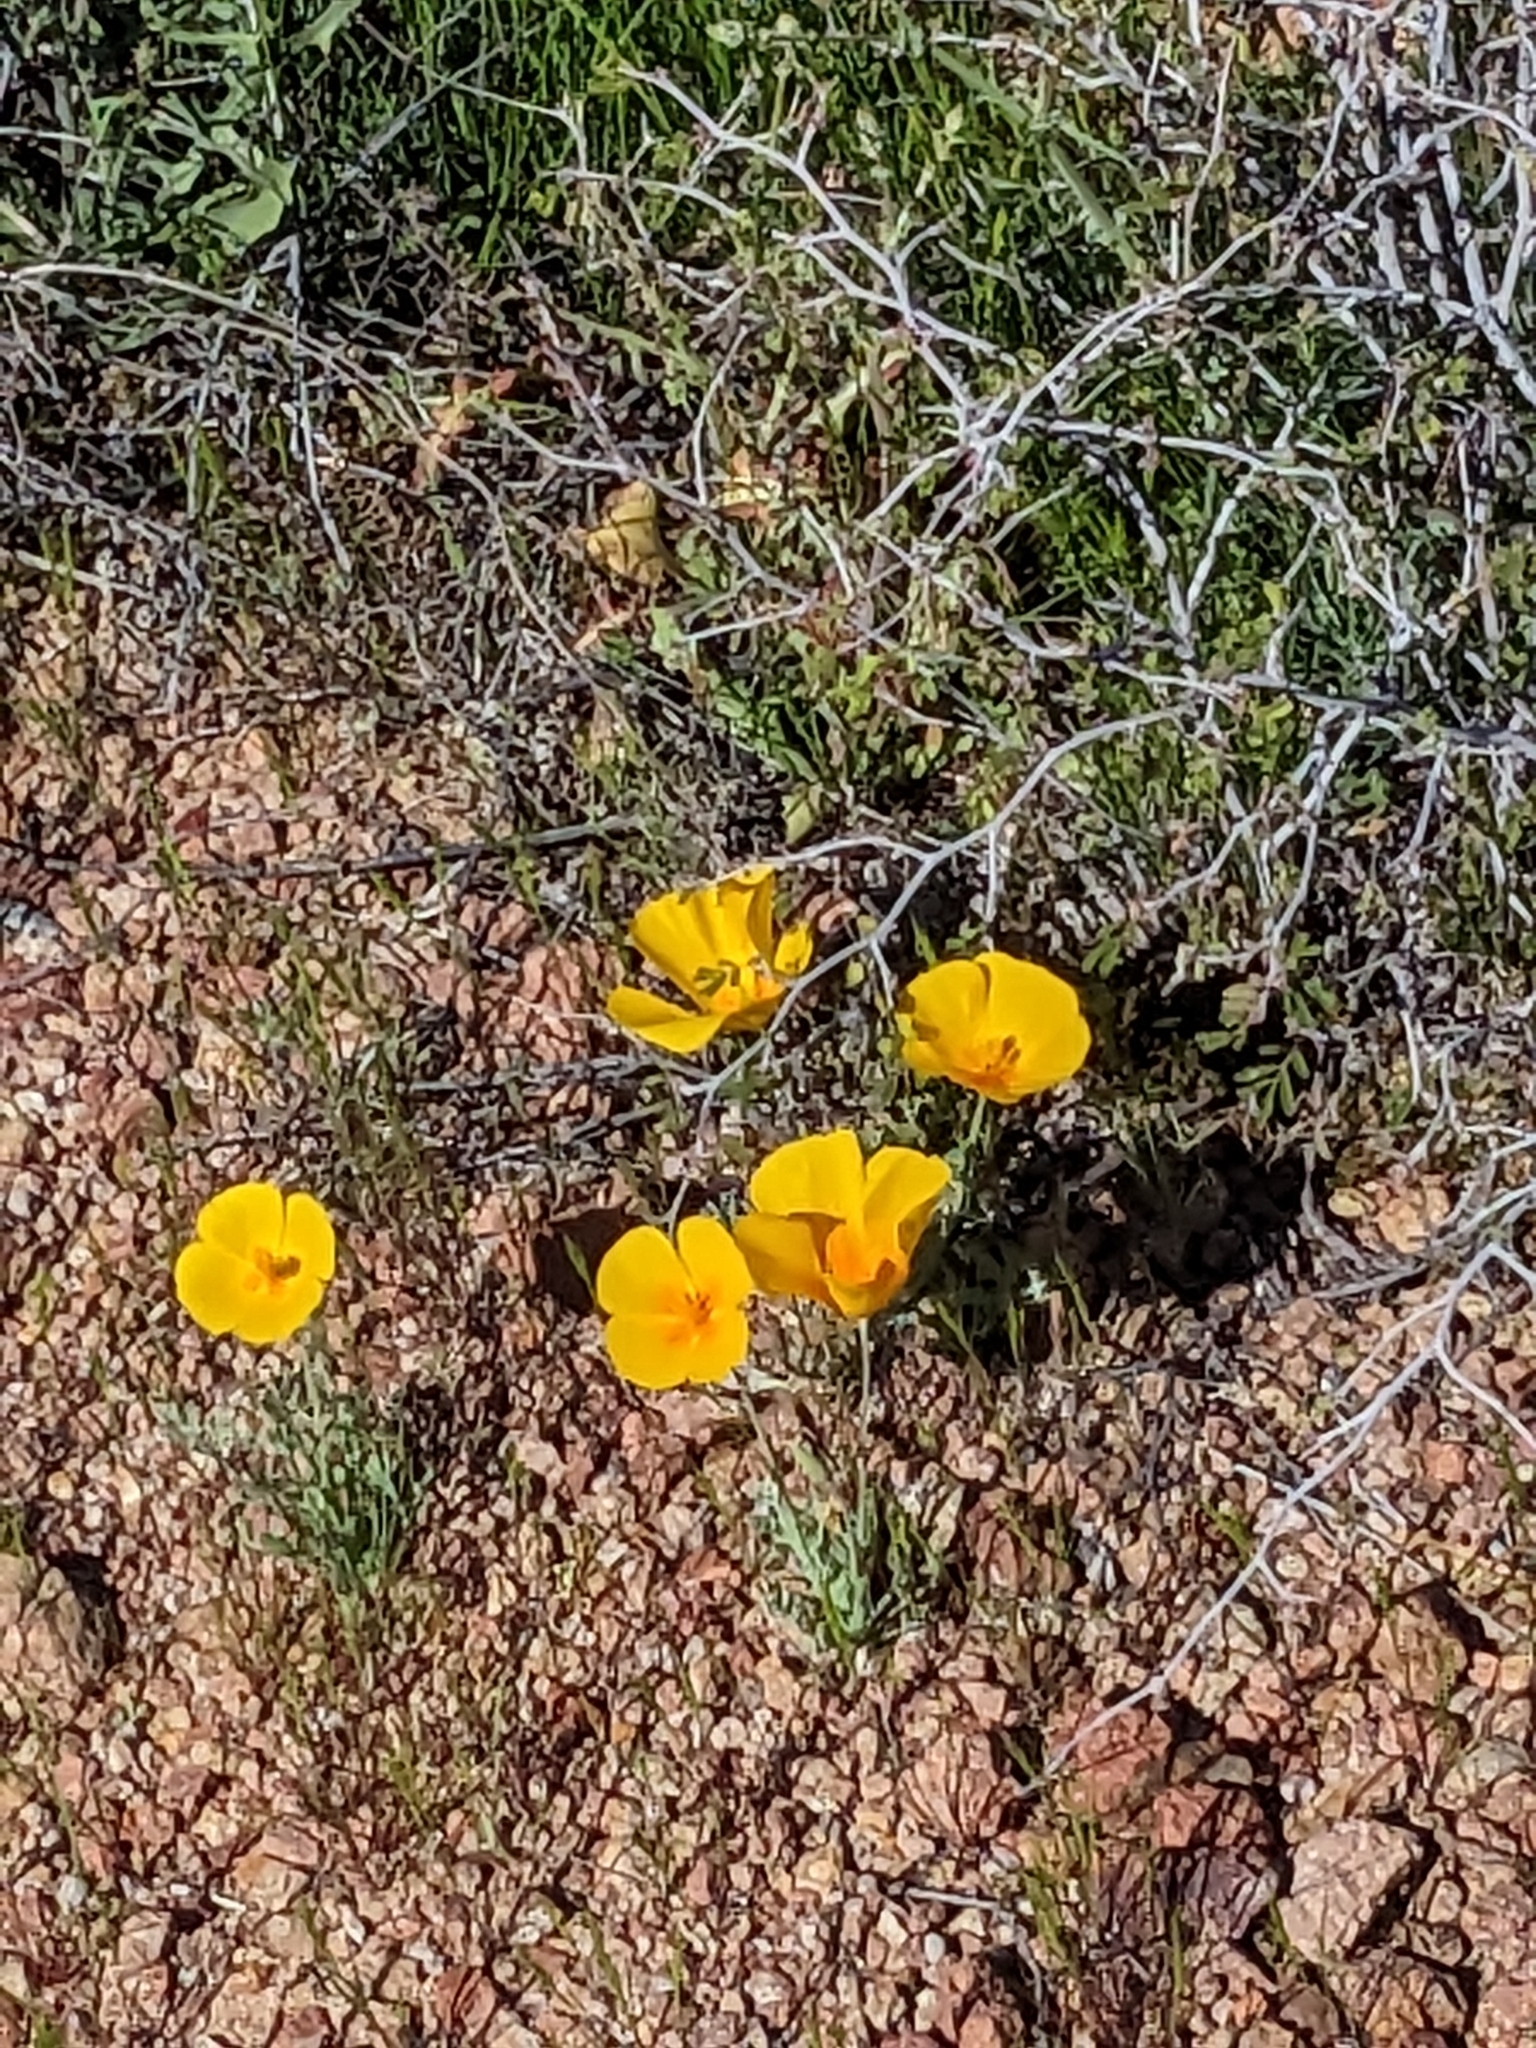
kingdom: Plantae
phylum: Tracheophyta
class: Magnoliopsida
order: Ranunculales
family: Papaveraceae
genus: Eschscholzia
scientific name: Eschscholzia californica
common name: California poppy
